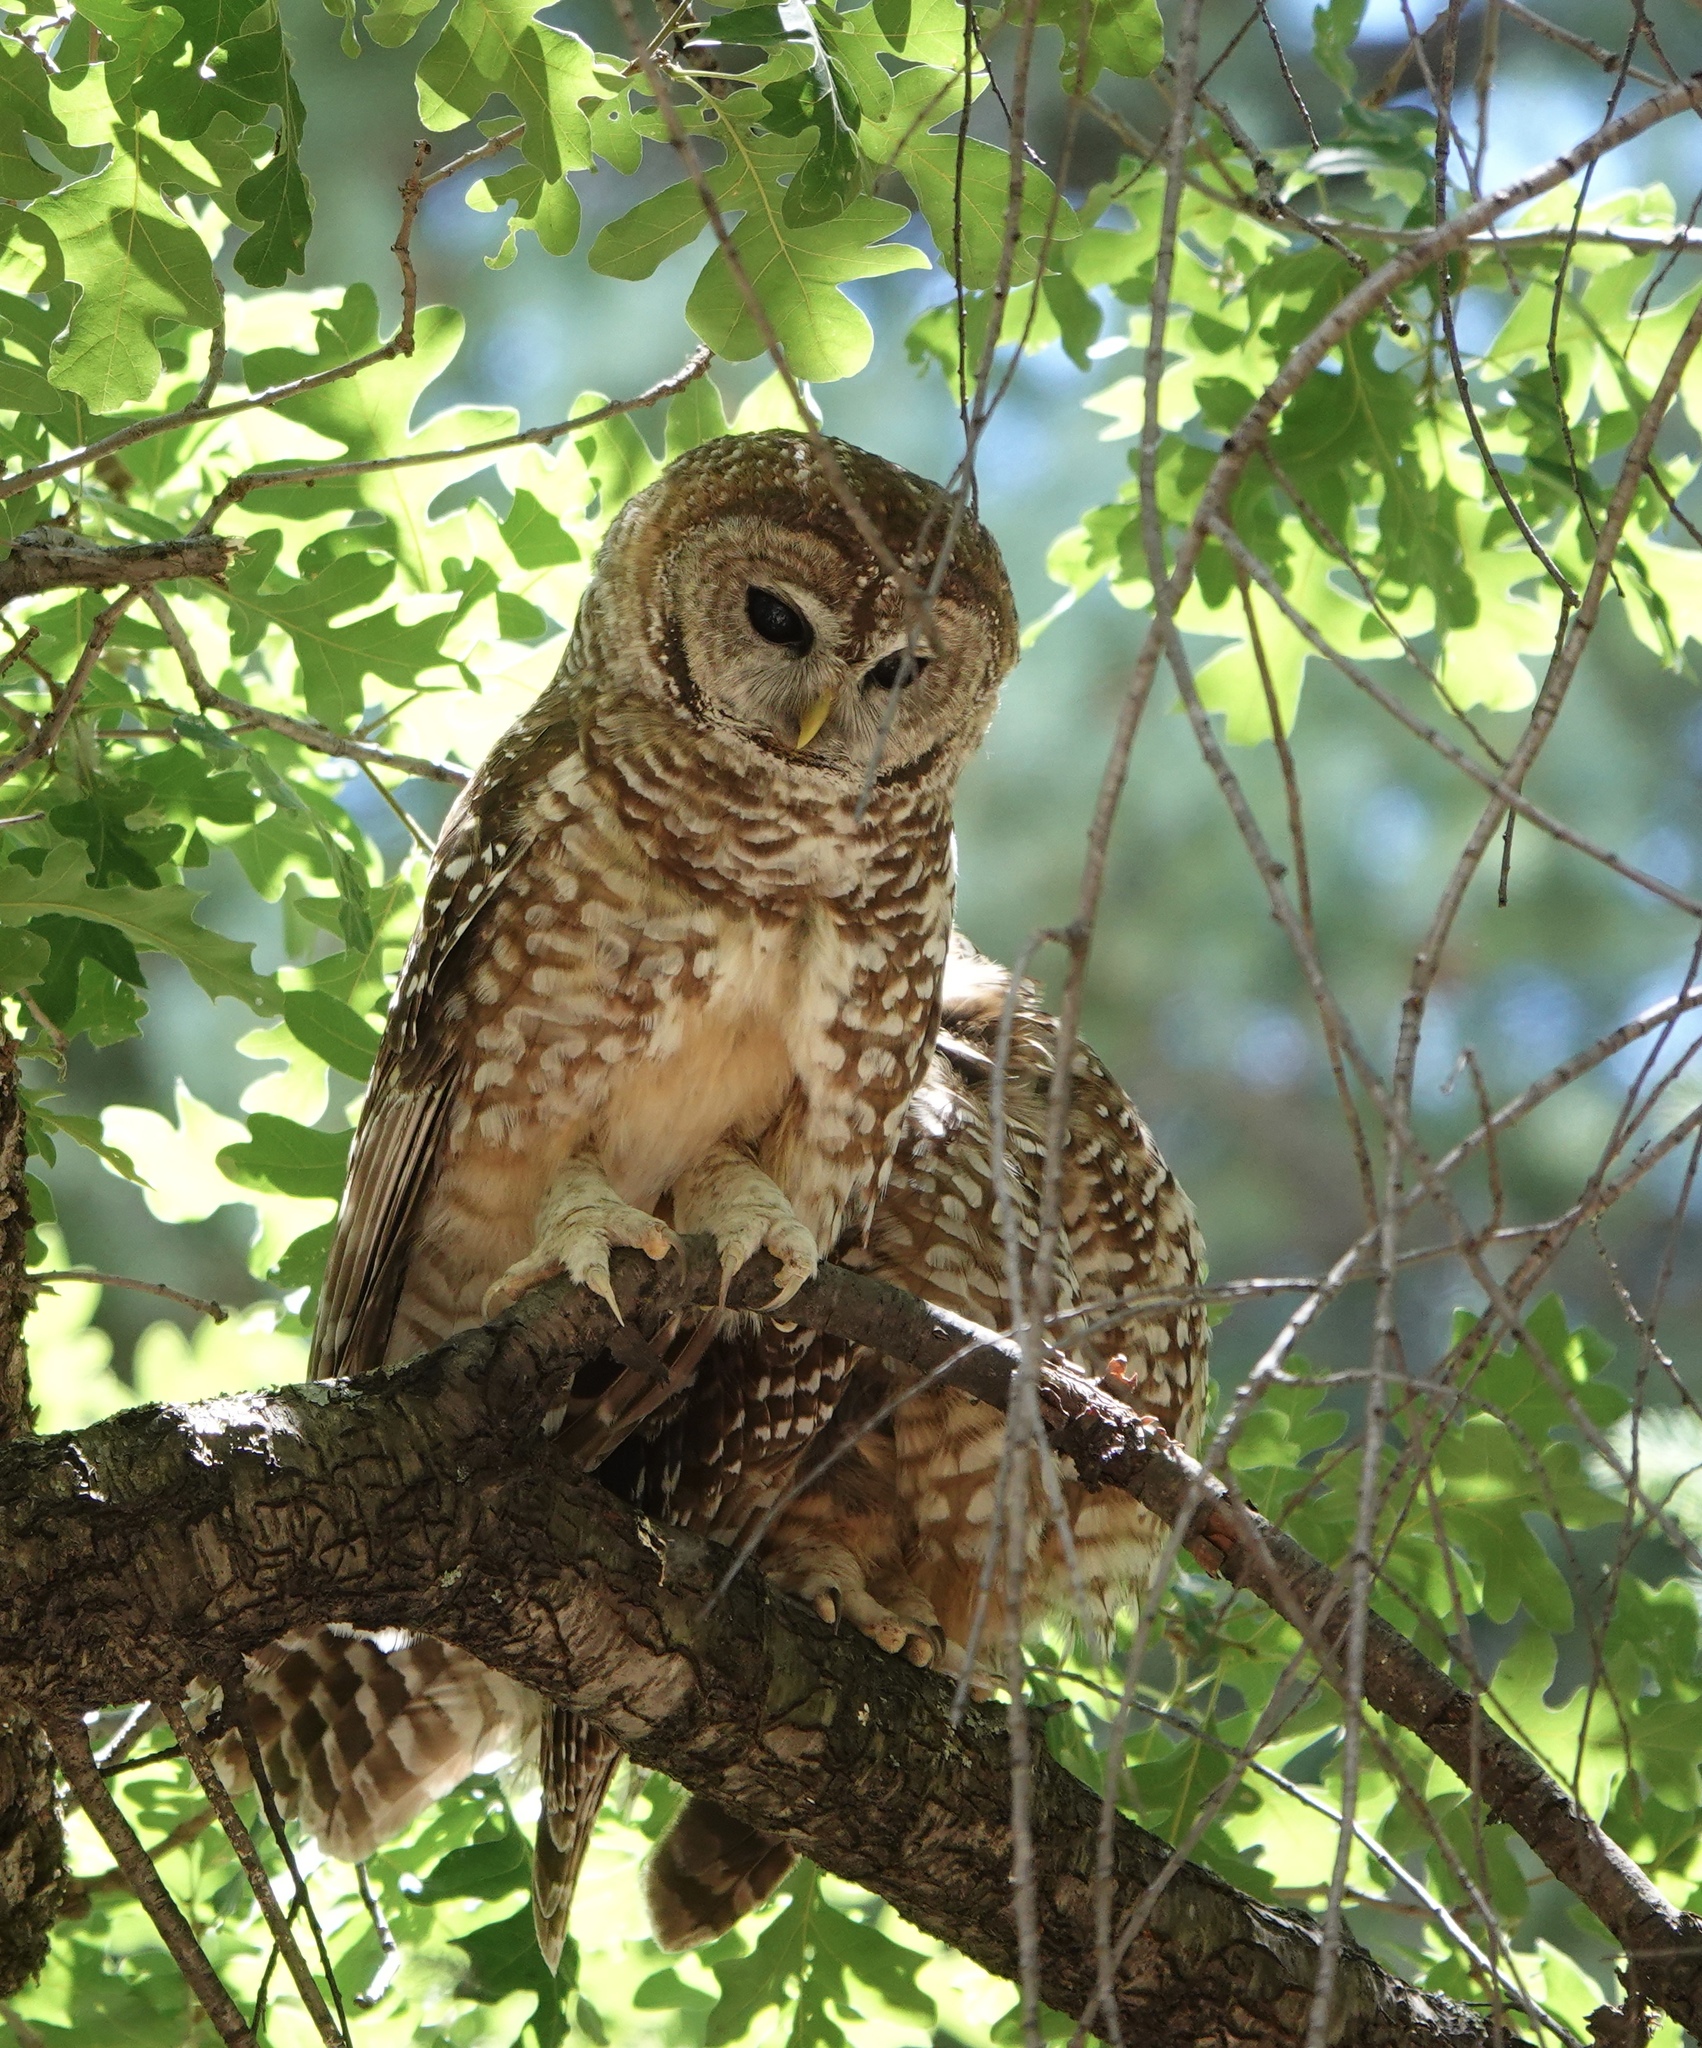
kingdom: Animalia
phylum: Chordata
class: Aves
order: Strigiformes
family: Strigidae
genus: Strix
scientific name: Strix occidentalis
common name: Spotted owl
